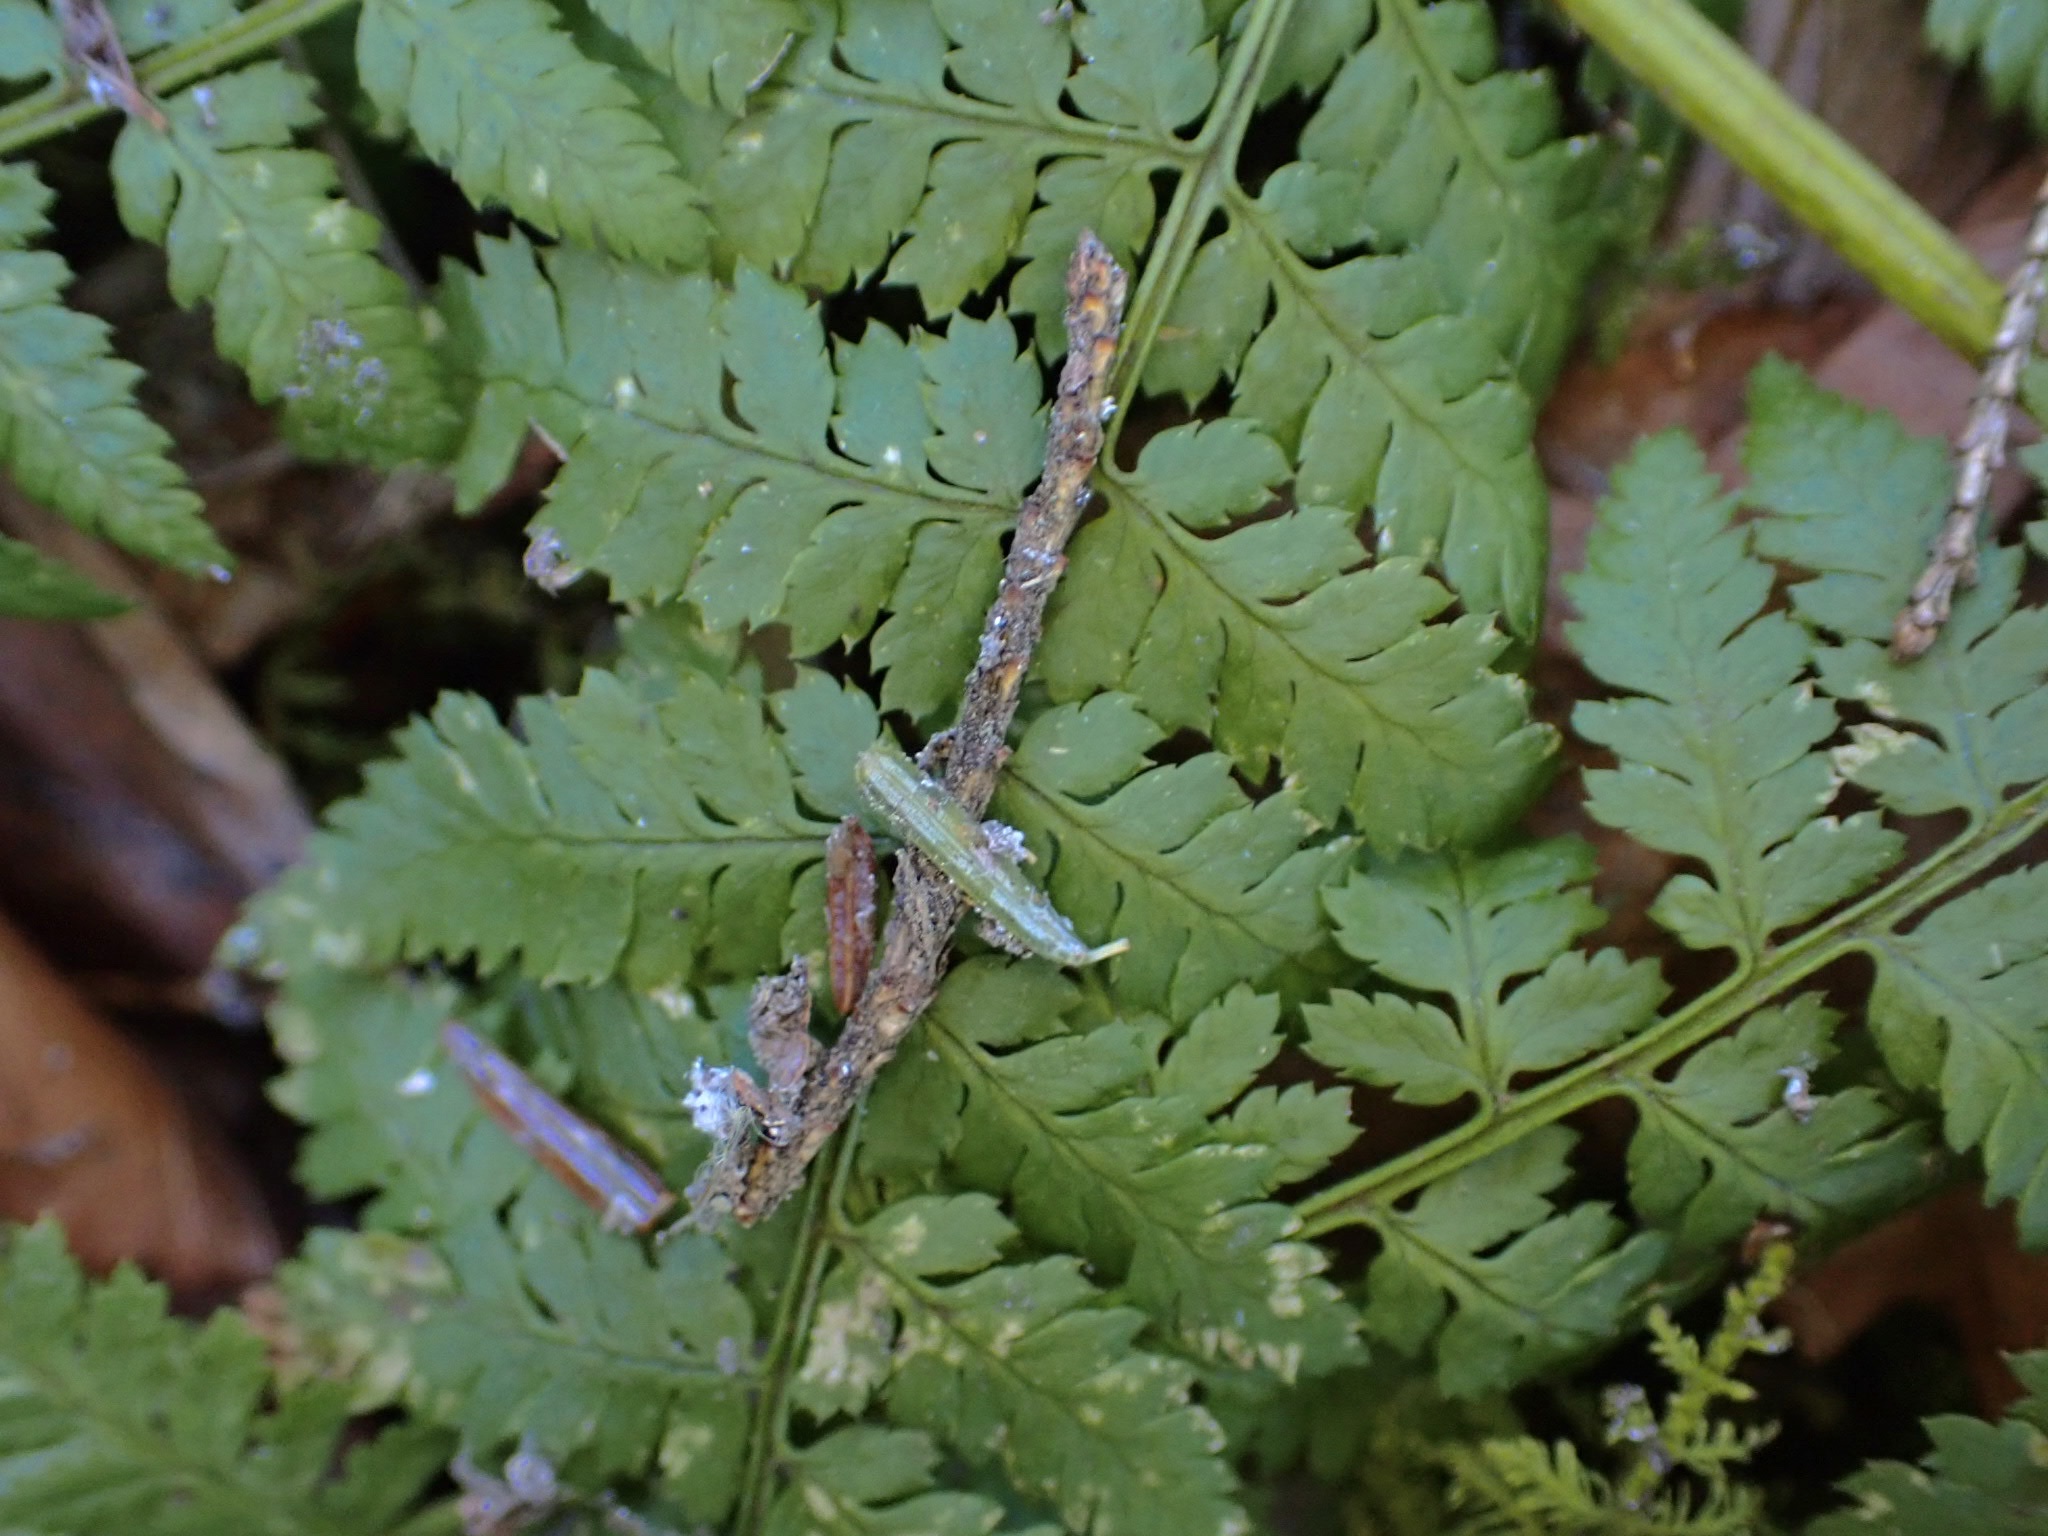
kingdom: Plantae
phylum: Tracheophyta
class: Polypodiopsida
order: Polypodiales
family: Dryopteridaceae
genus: Dryopteris
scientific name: Dryopteris intermedia
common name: Evergreen wood fern
